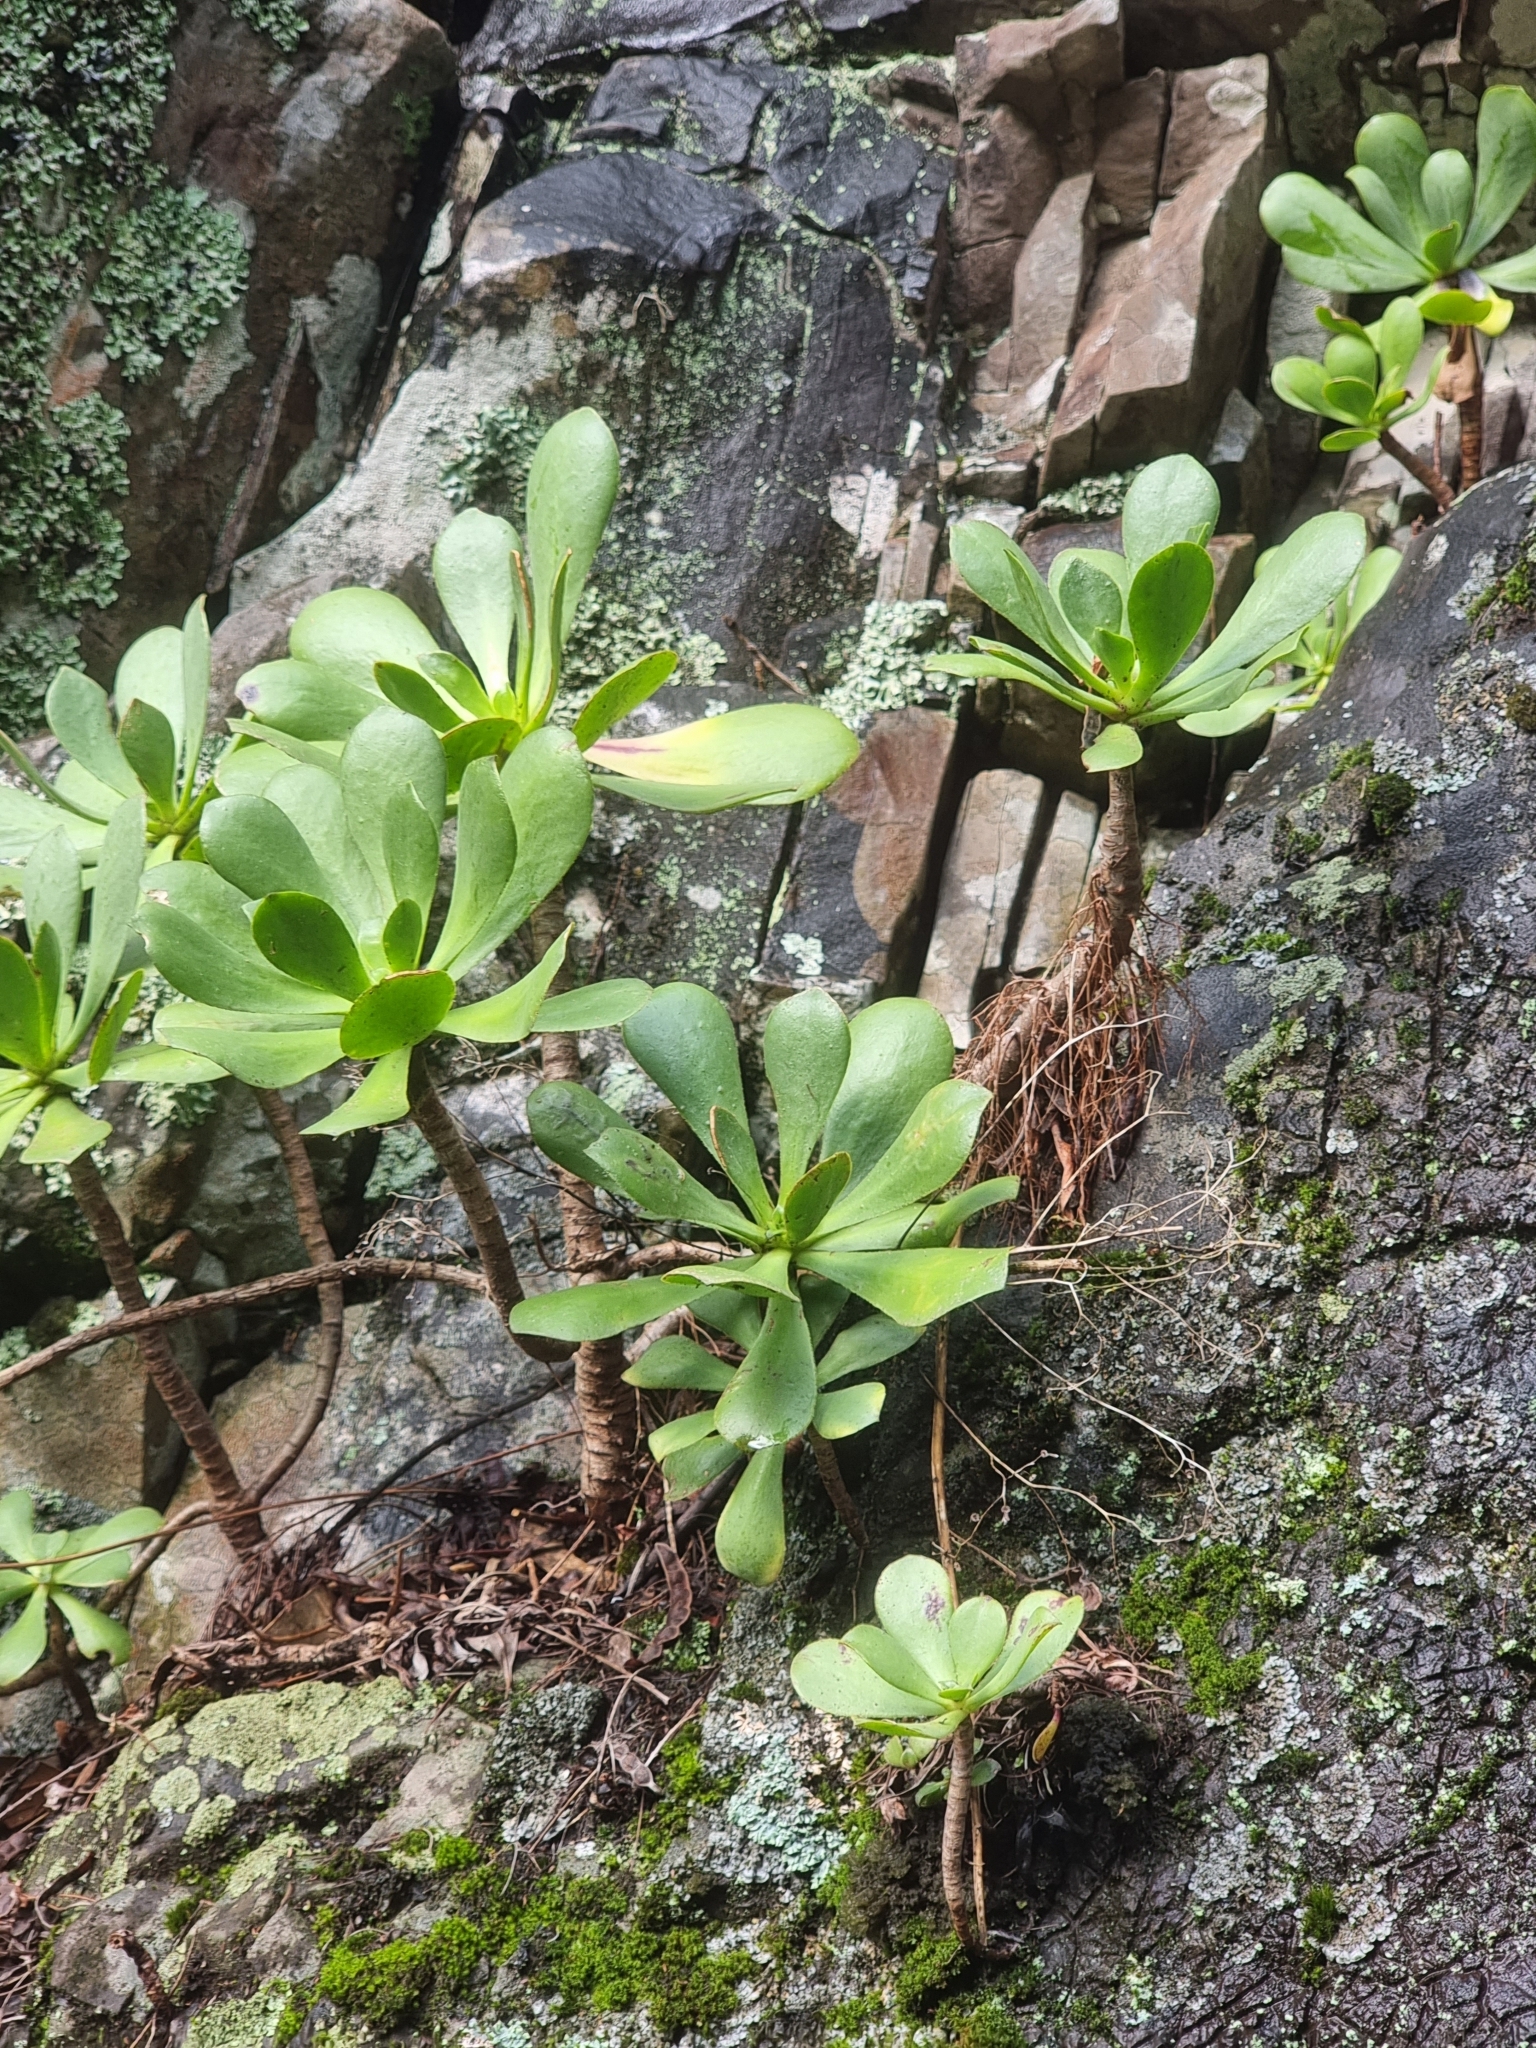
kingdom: Plantae
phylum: Tracheophyta
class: Magnoliopsida
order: Saxifragales
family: Crassulaceae
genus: Aeonium
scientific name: Aeonium glutinosum
